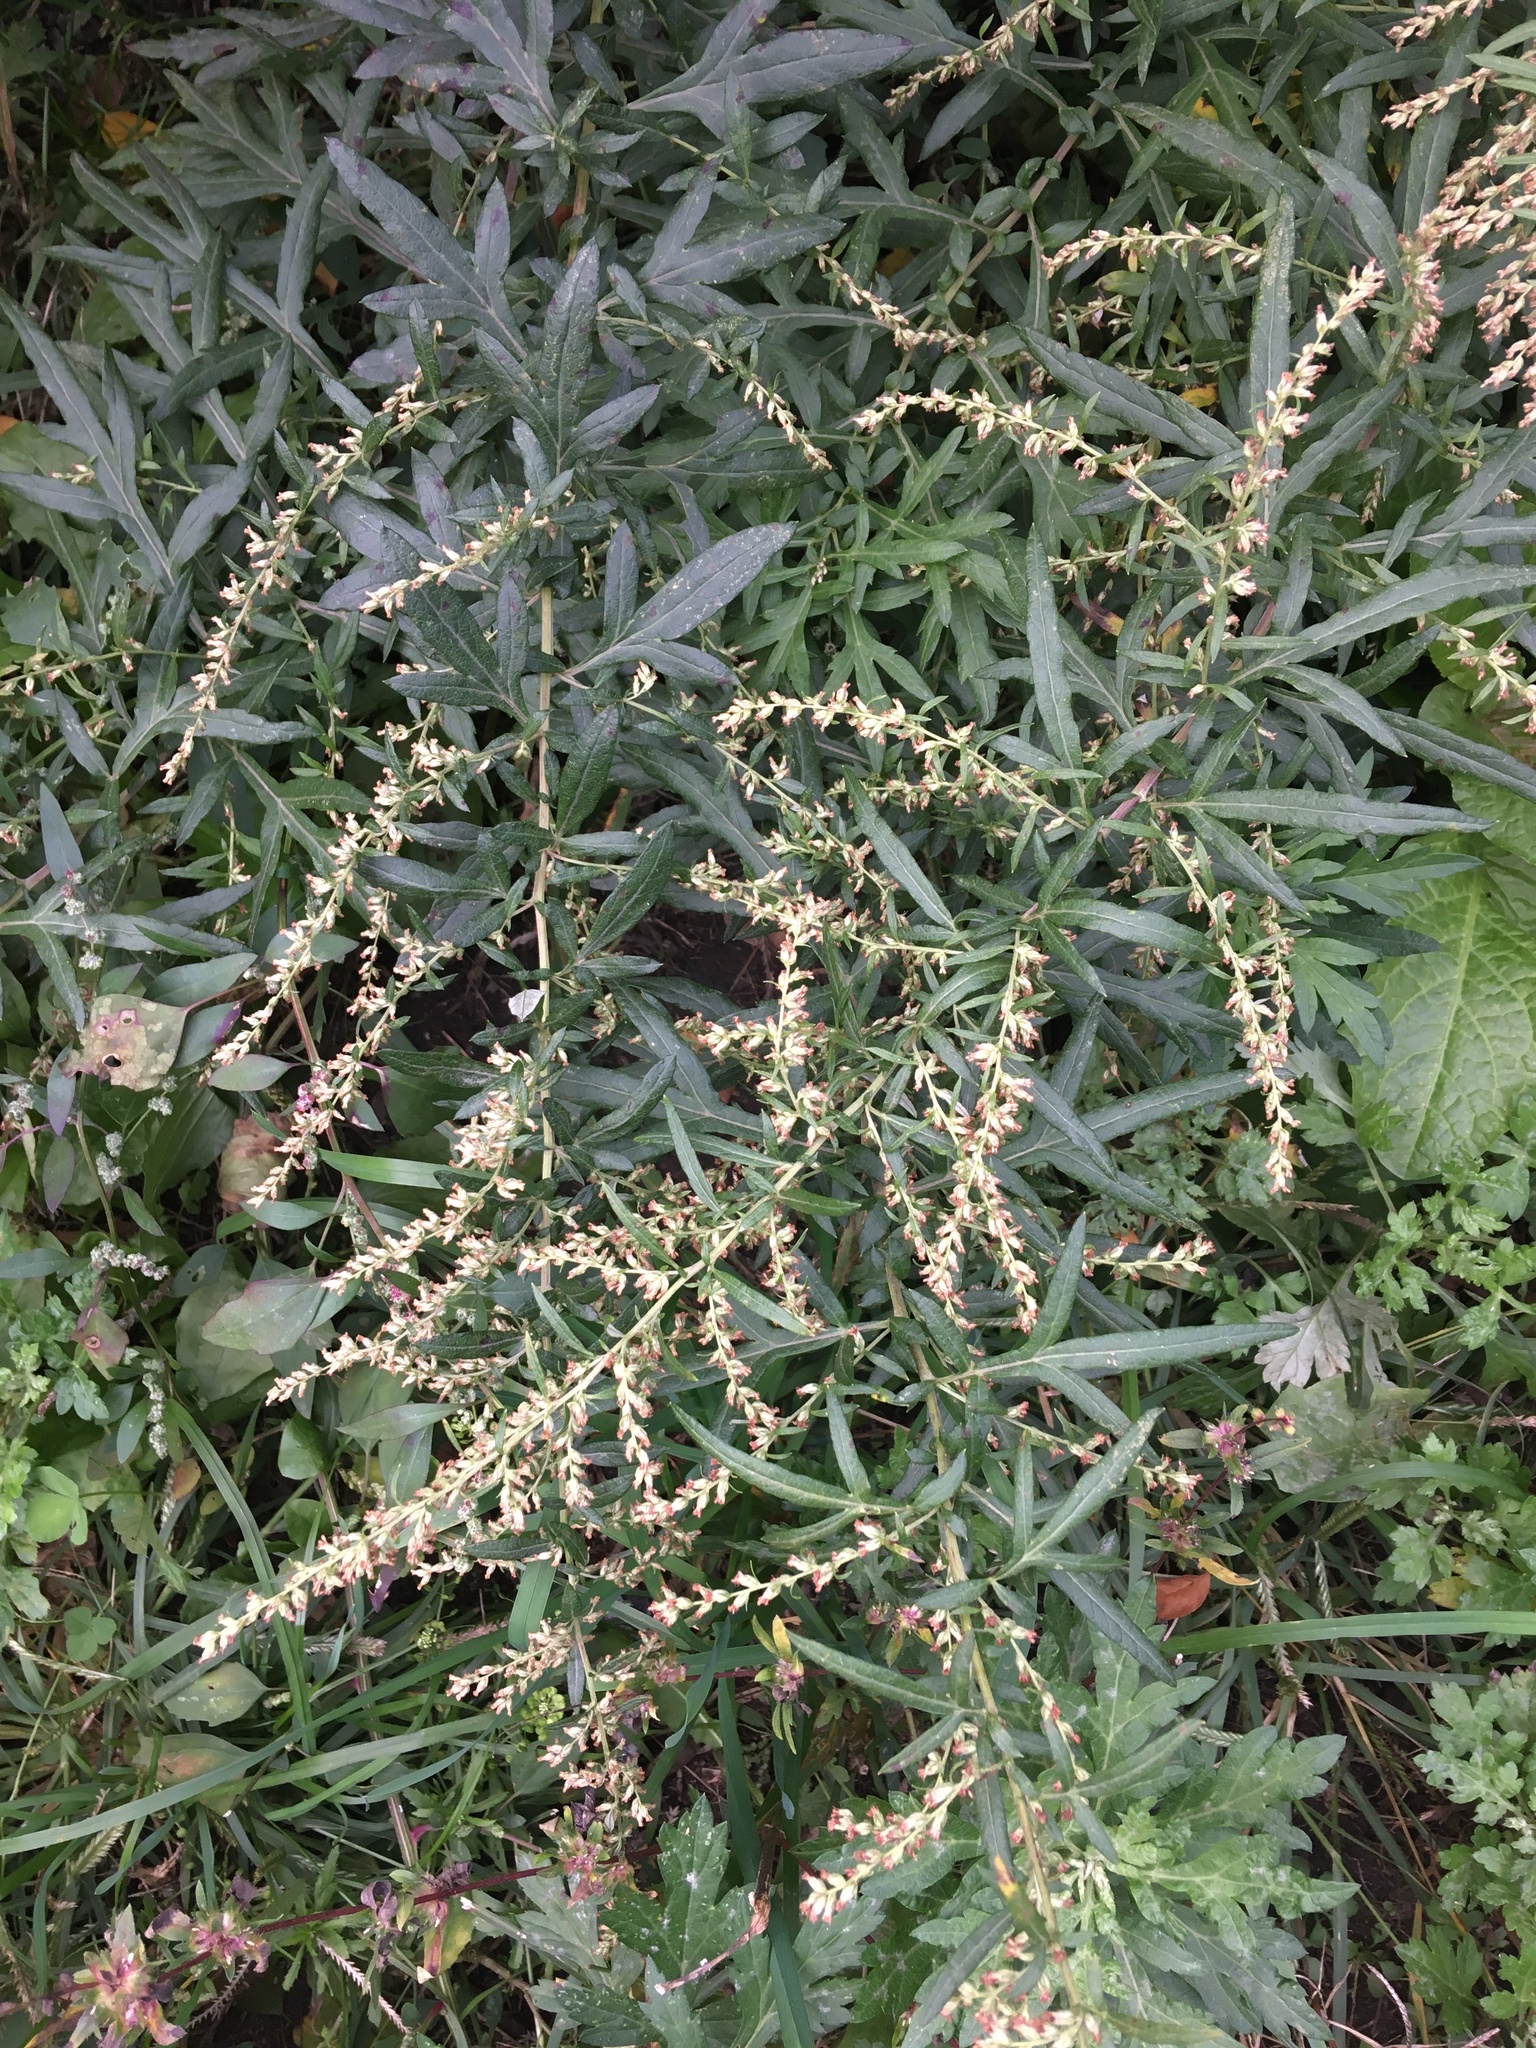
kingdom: Plantae
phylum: Tracheophyta
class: Magnoliopsida
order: Asterales
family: Asteraceae
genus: Artemisia
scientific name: Artemisia vulgaris
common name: Mugwort
